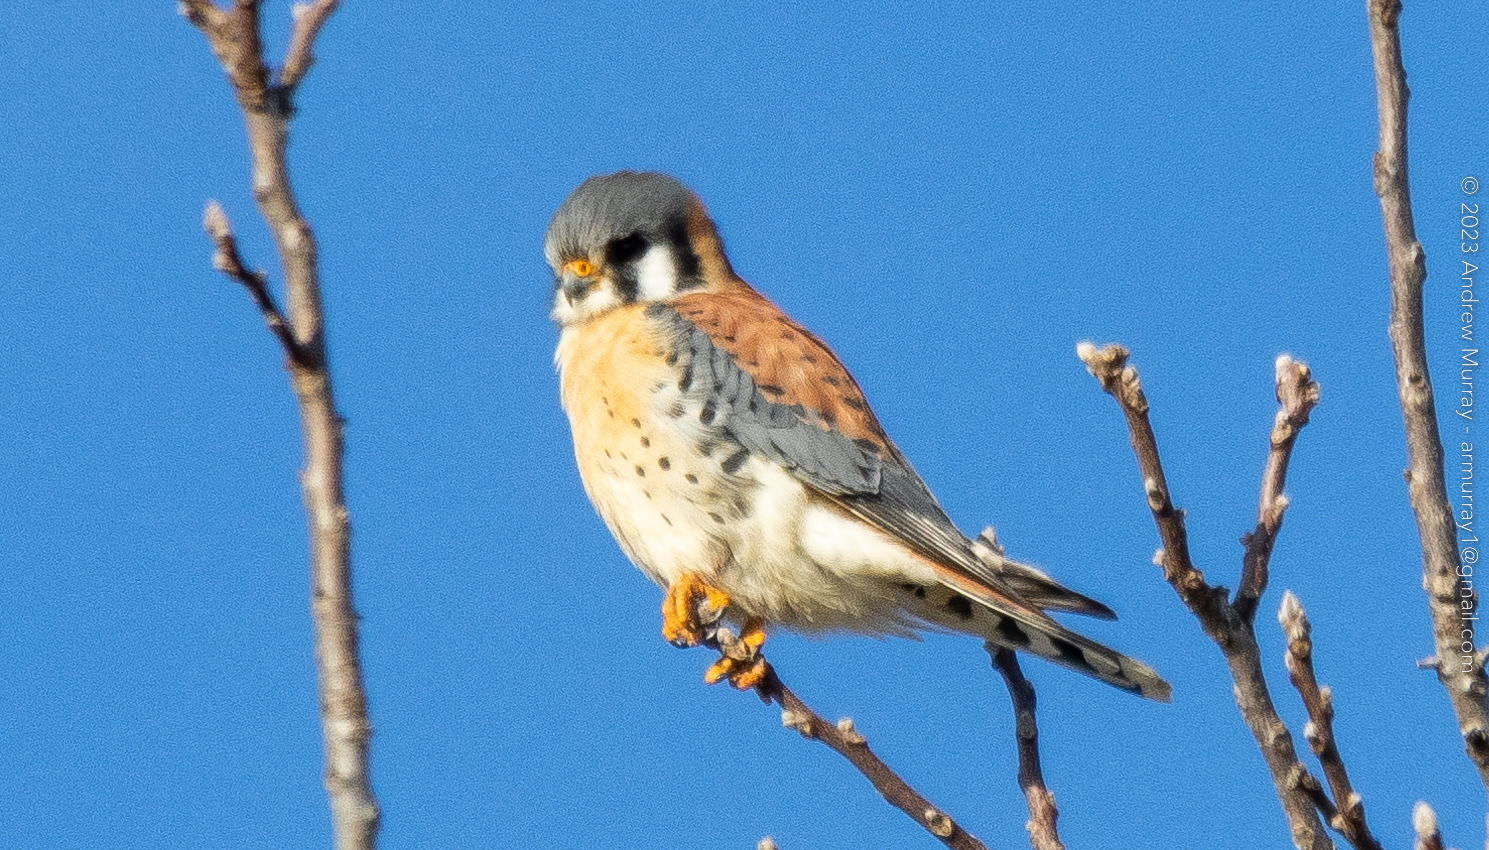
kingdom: Animalia
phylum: Chordata
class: Aves
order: Falconiformes
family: Falconidae
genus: Falco
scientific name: Falco sparverius
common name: American kestrel
